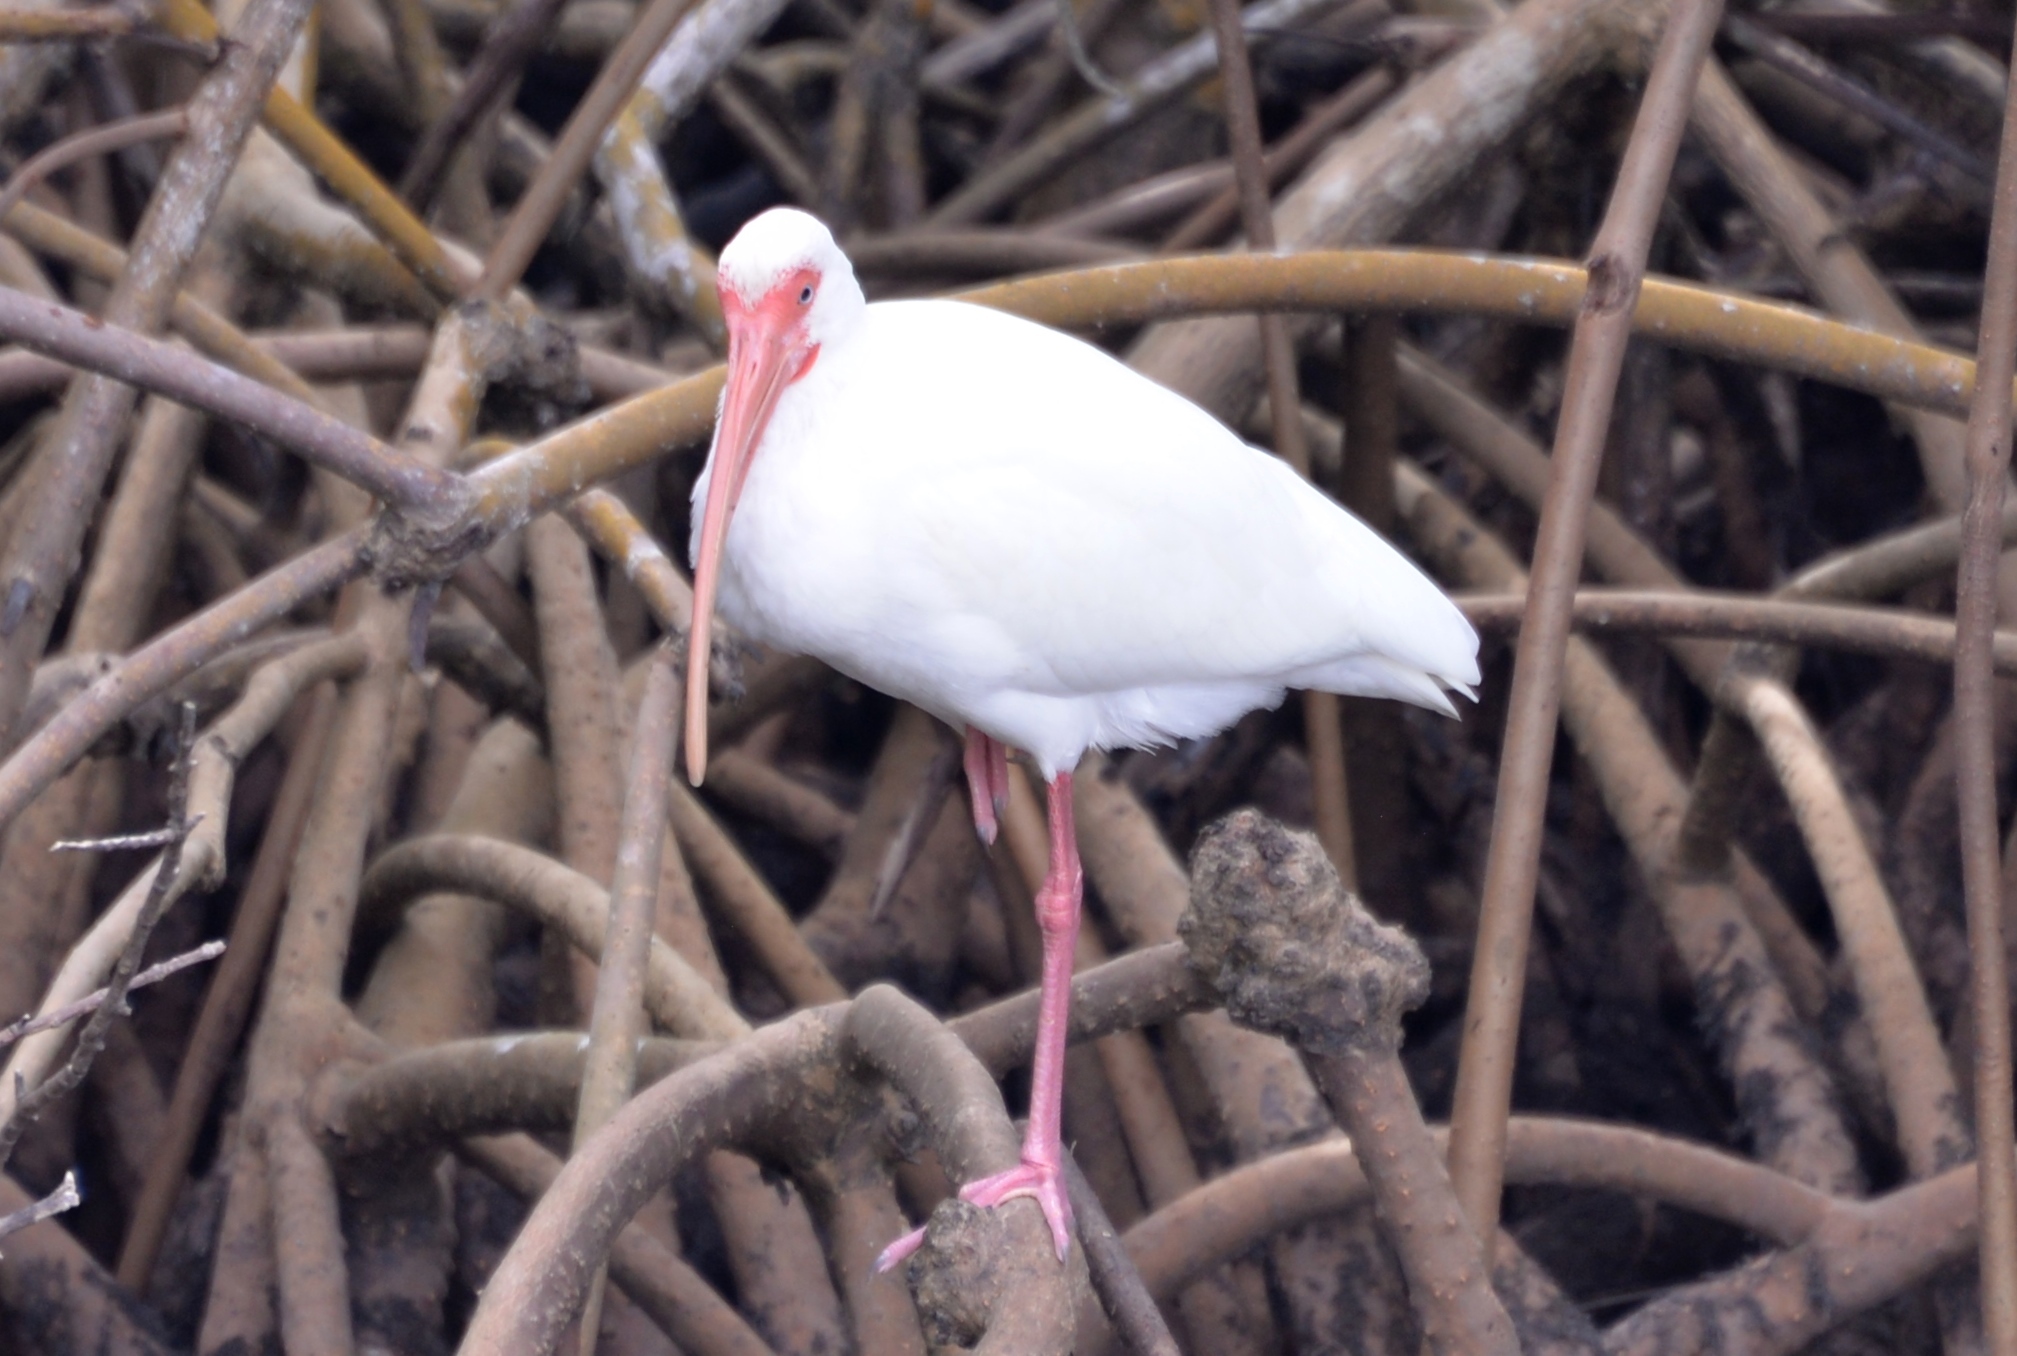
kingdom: Animalia
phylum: Chordata
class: Aves
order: Pelecaniformes
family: Threskiornithidae
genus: Eudocimus
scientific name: Eudocimus albus
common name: White ibis
